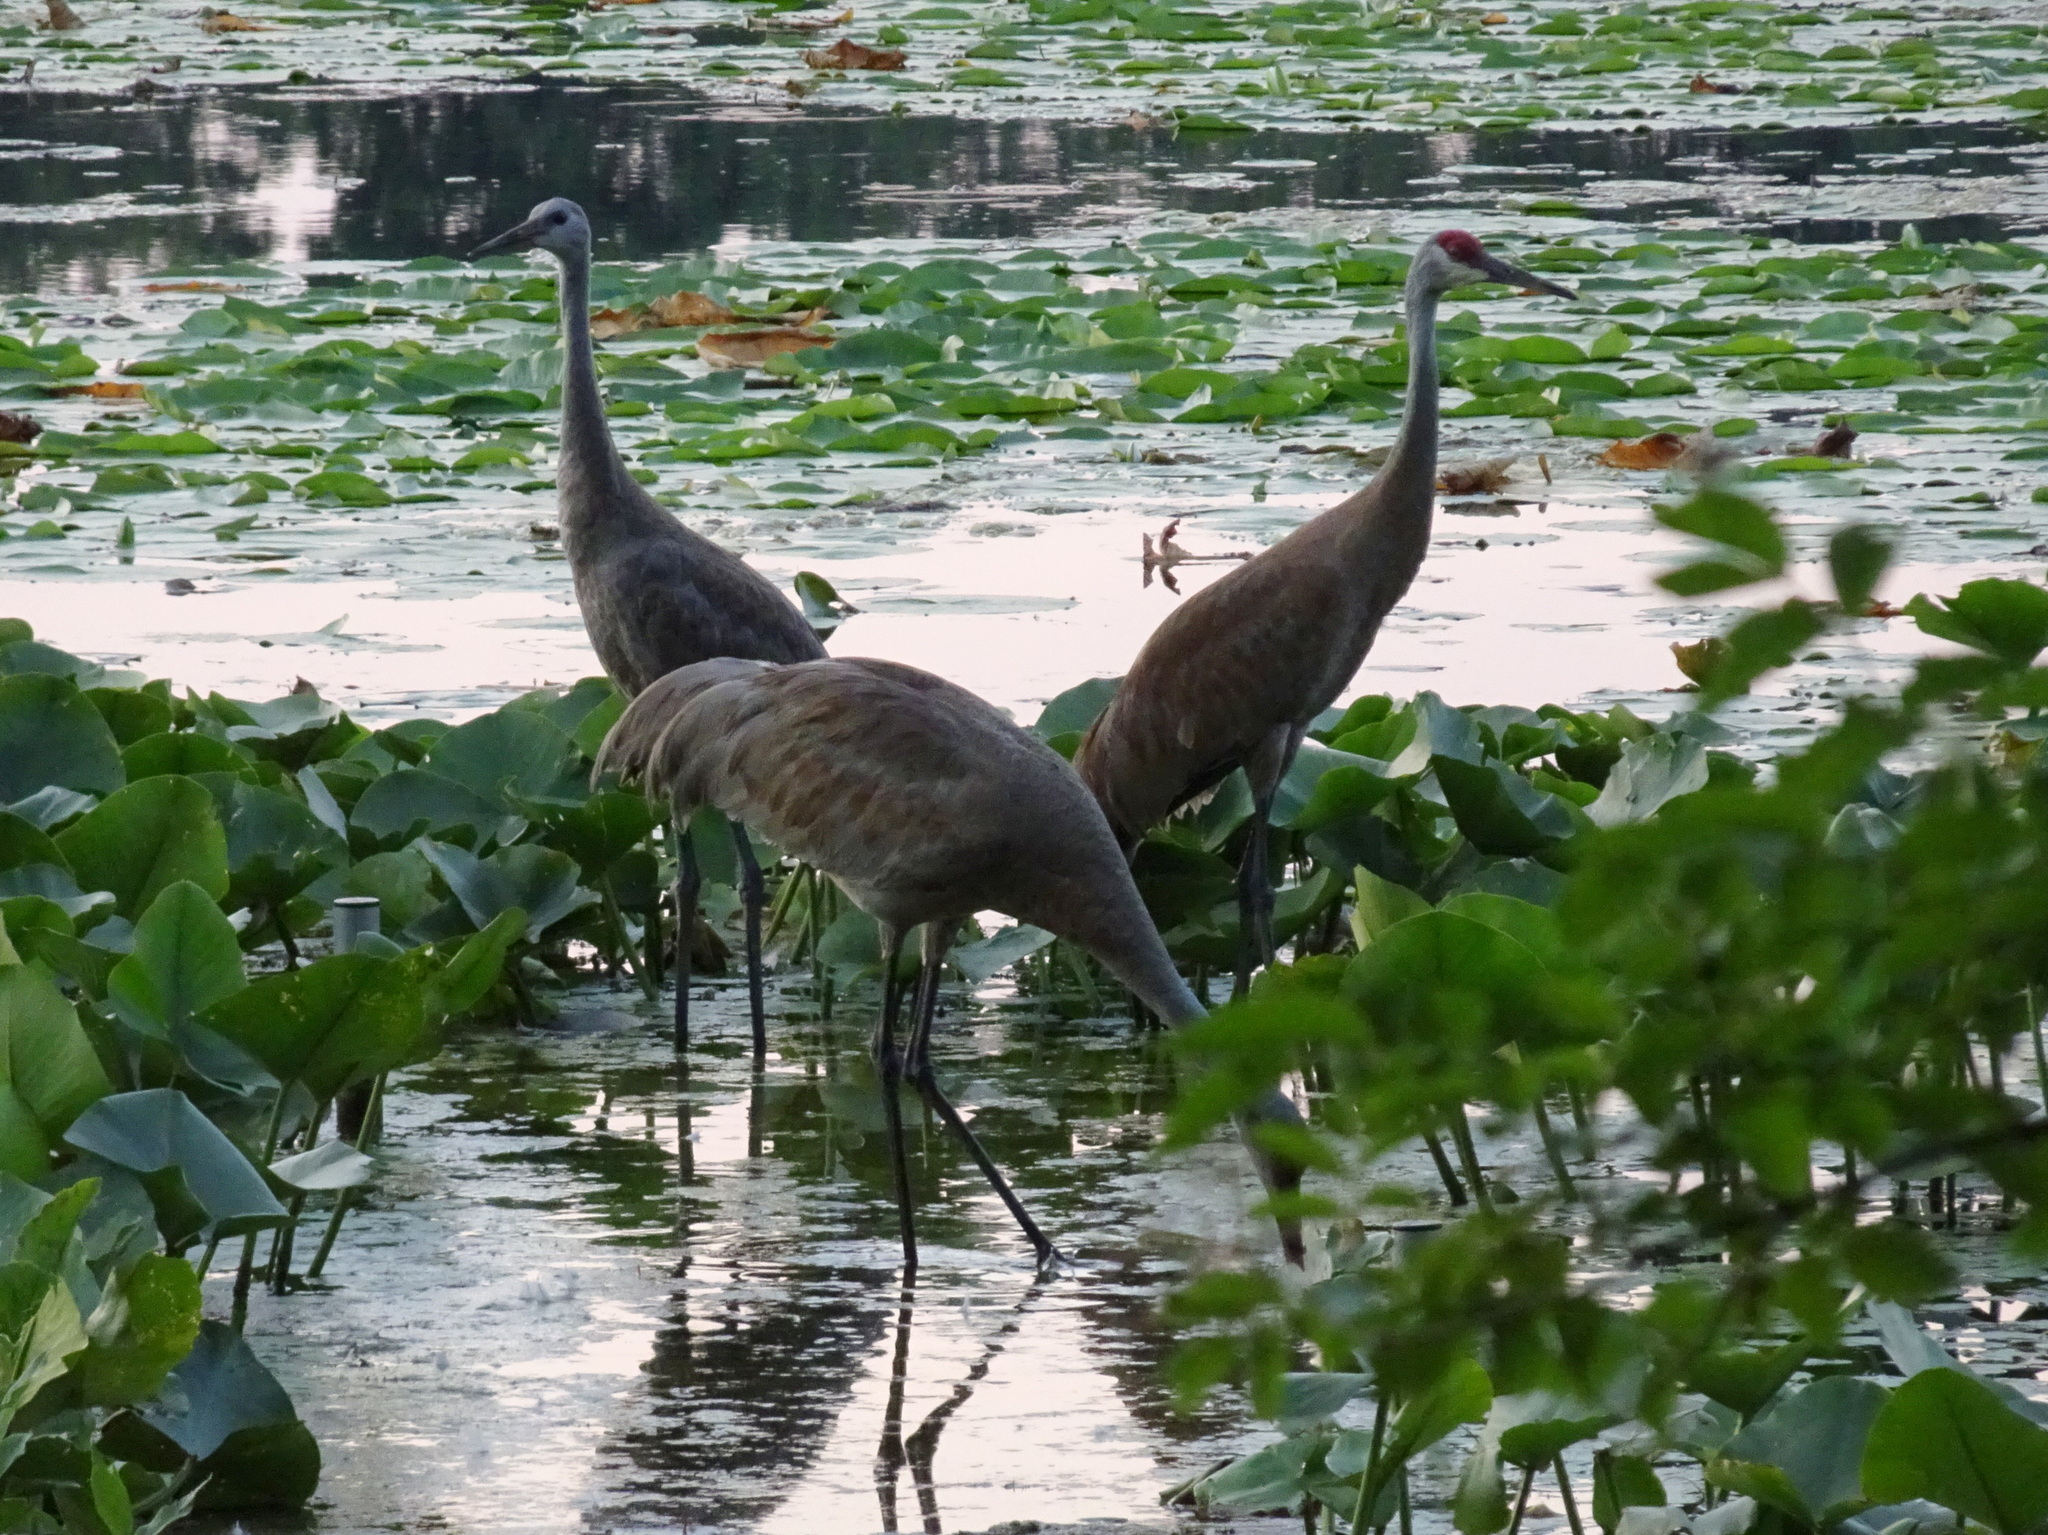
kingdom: Animalia
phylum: Chordata
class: Aves
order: Gruiformes
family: Gruidae
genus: Grus
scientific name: Grus canadensis
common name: Sandhill crane
